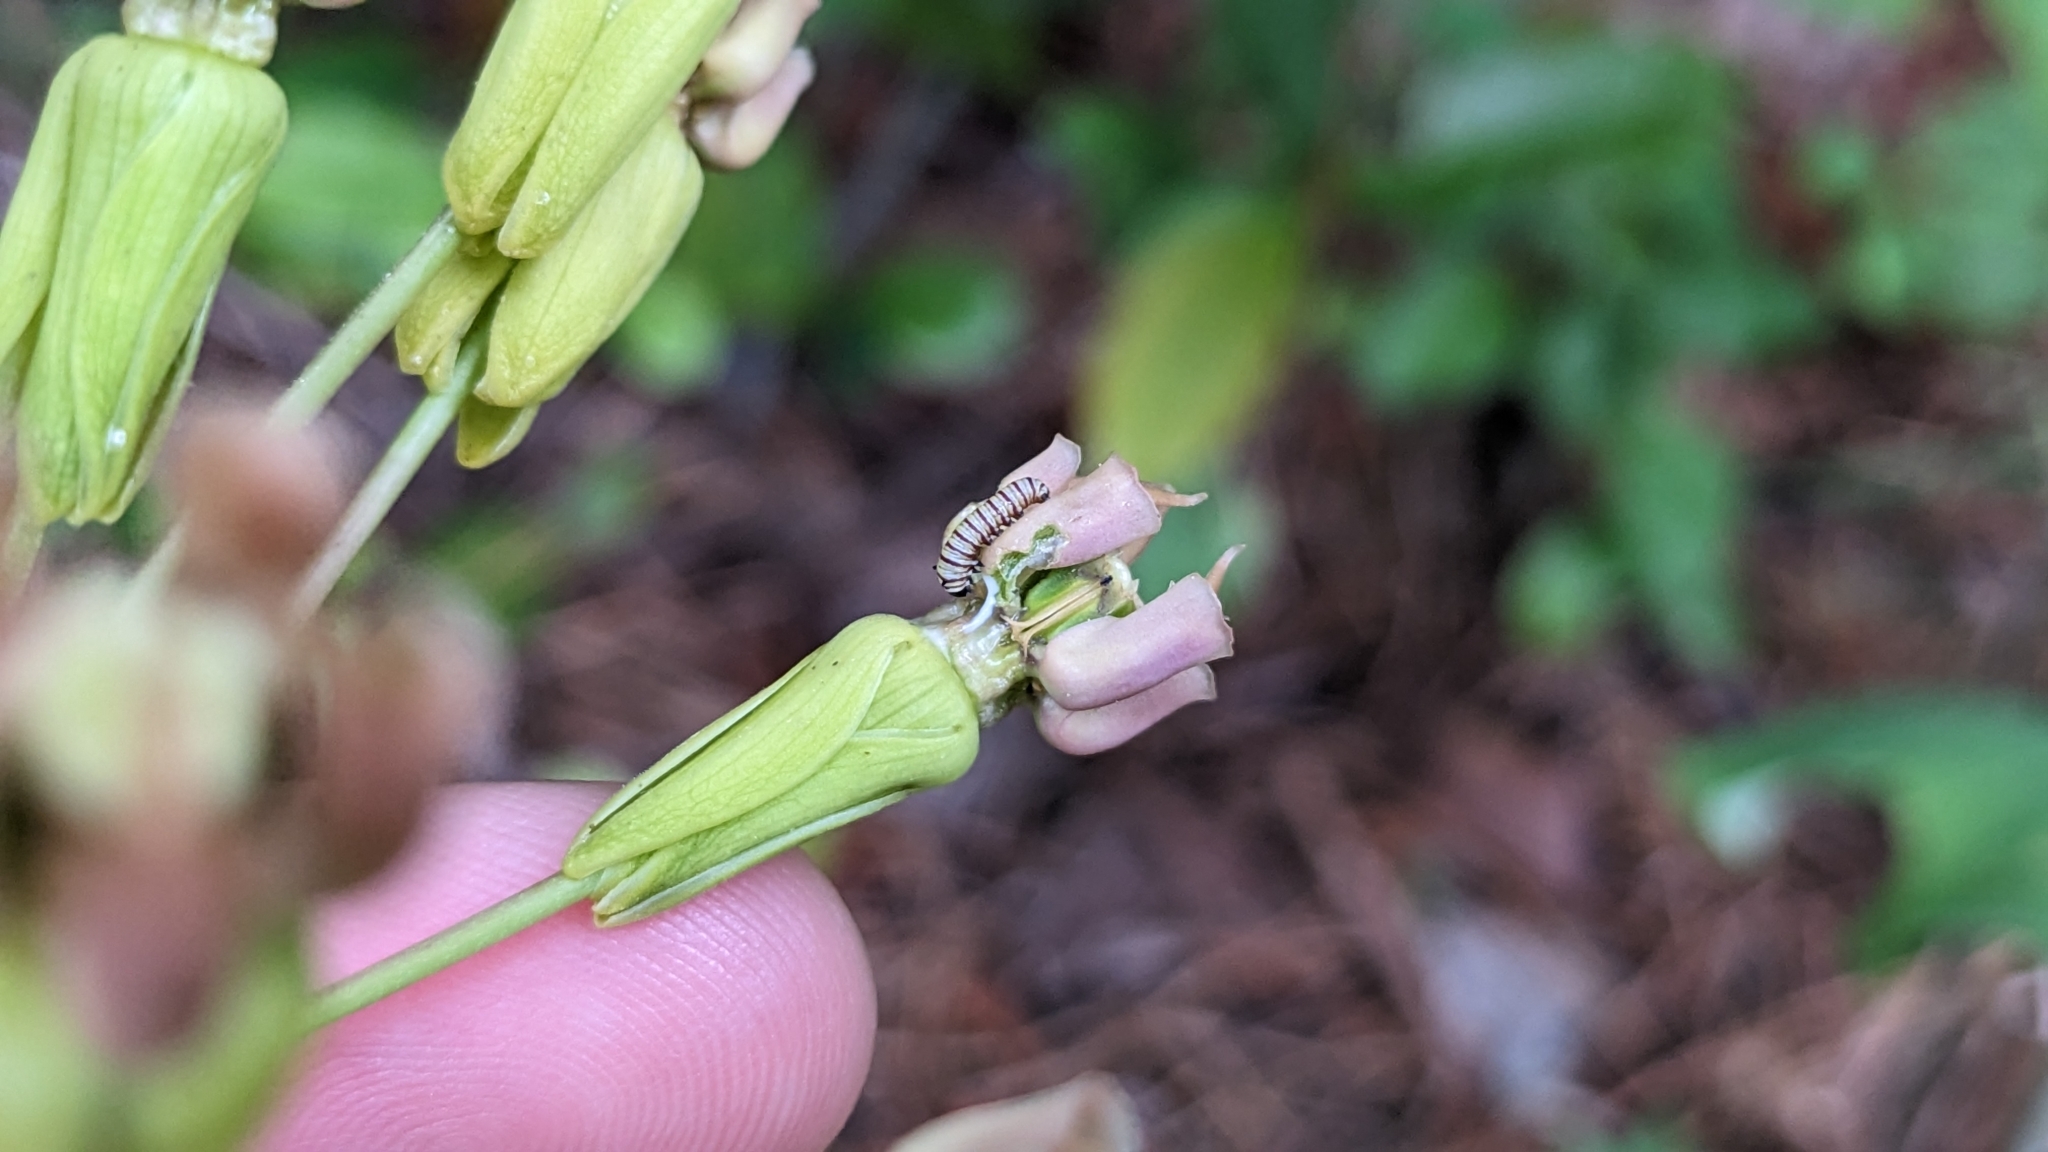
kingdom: Plantae
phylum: Tracheophyta
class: Magnoliopsida
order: Gentianales
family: Apocynaceae
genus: Asclepias
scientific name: Asclepias amplexicaulis
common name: Blunt-leaf milkweed
